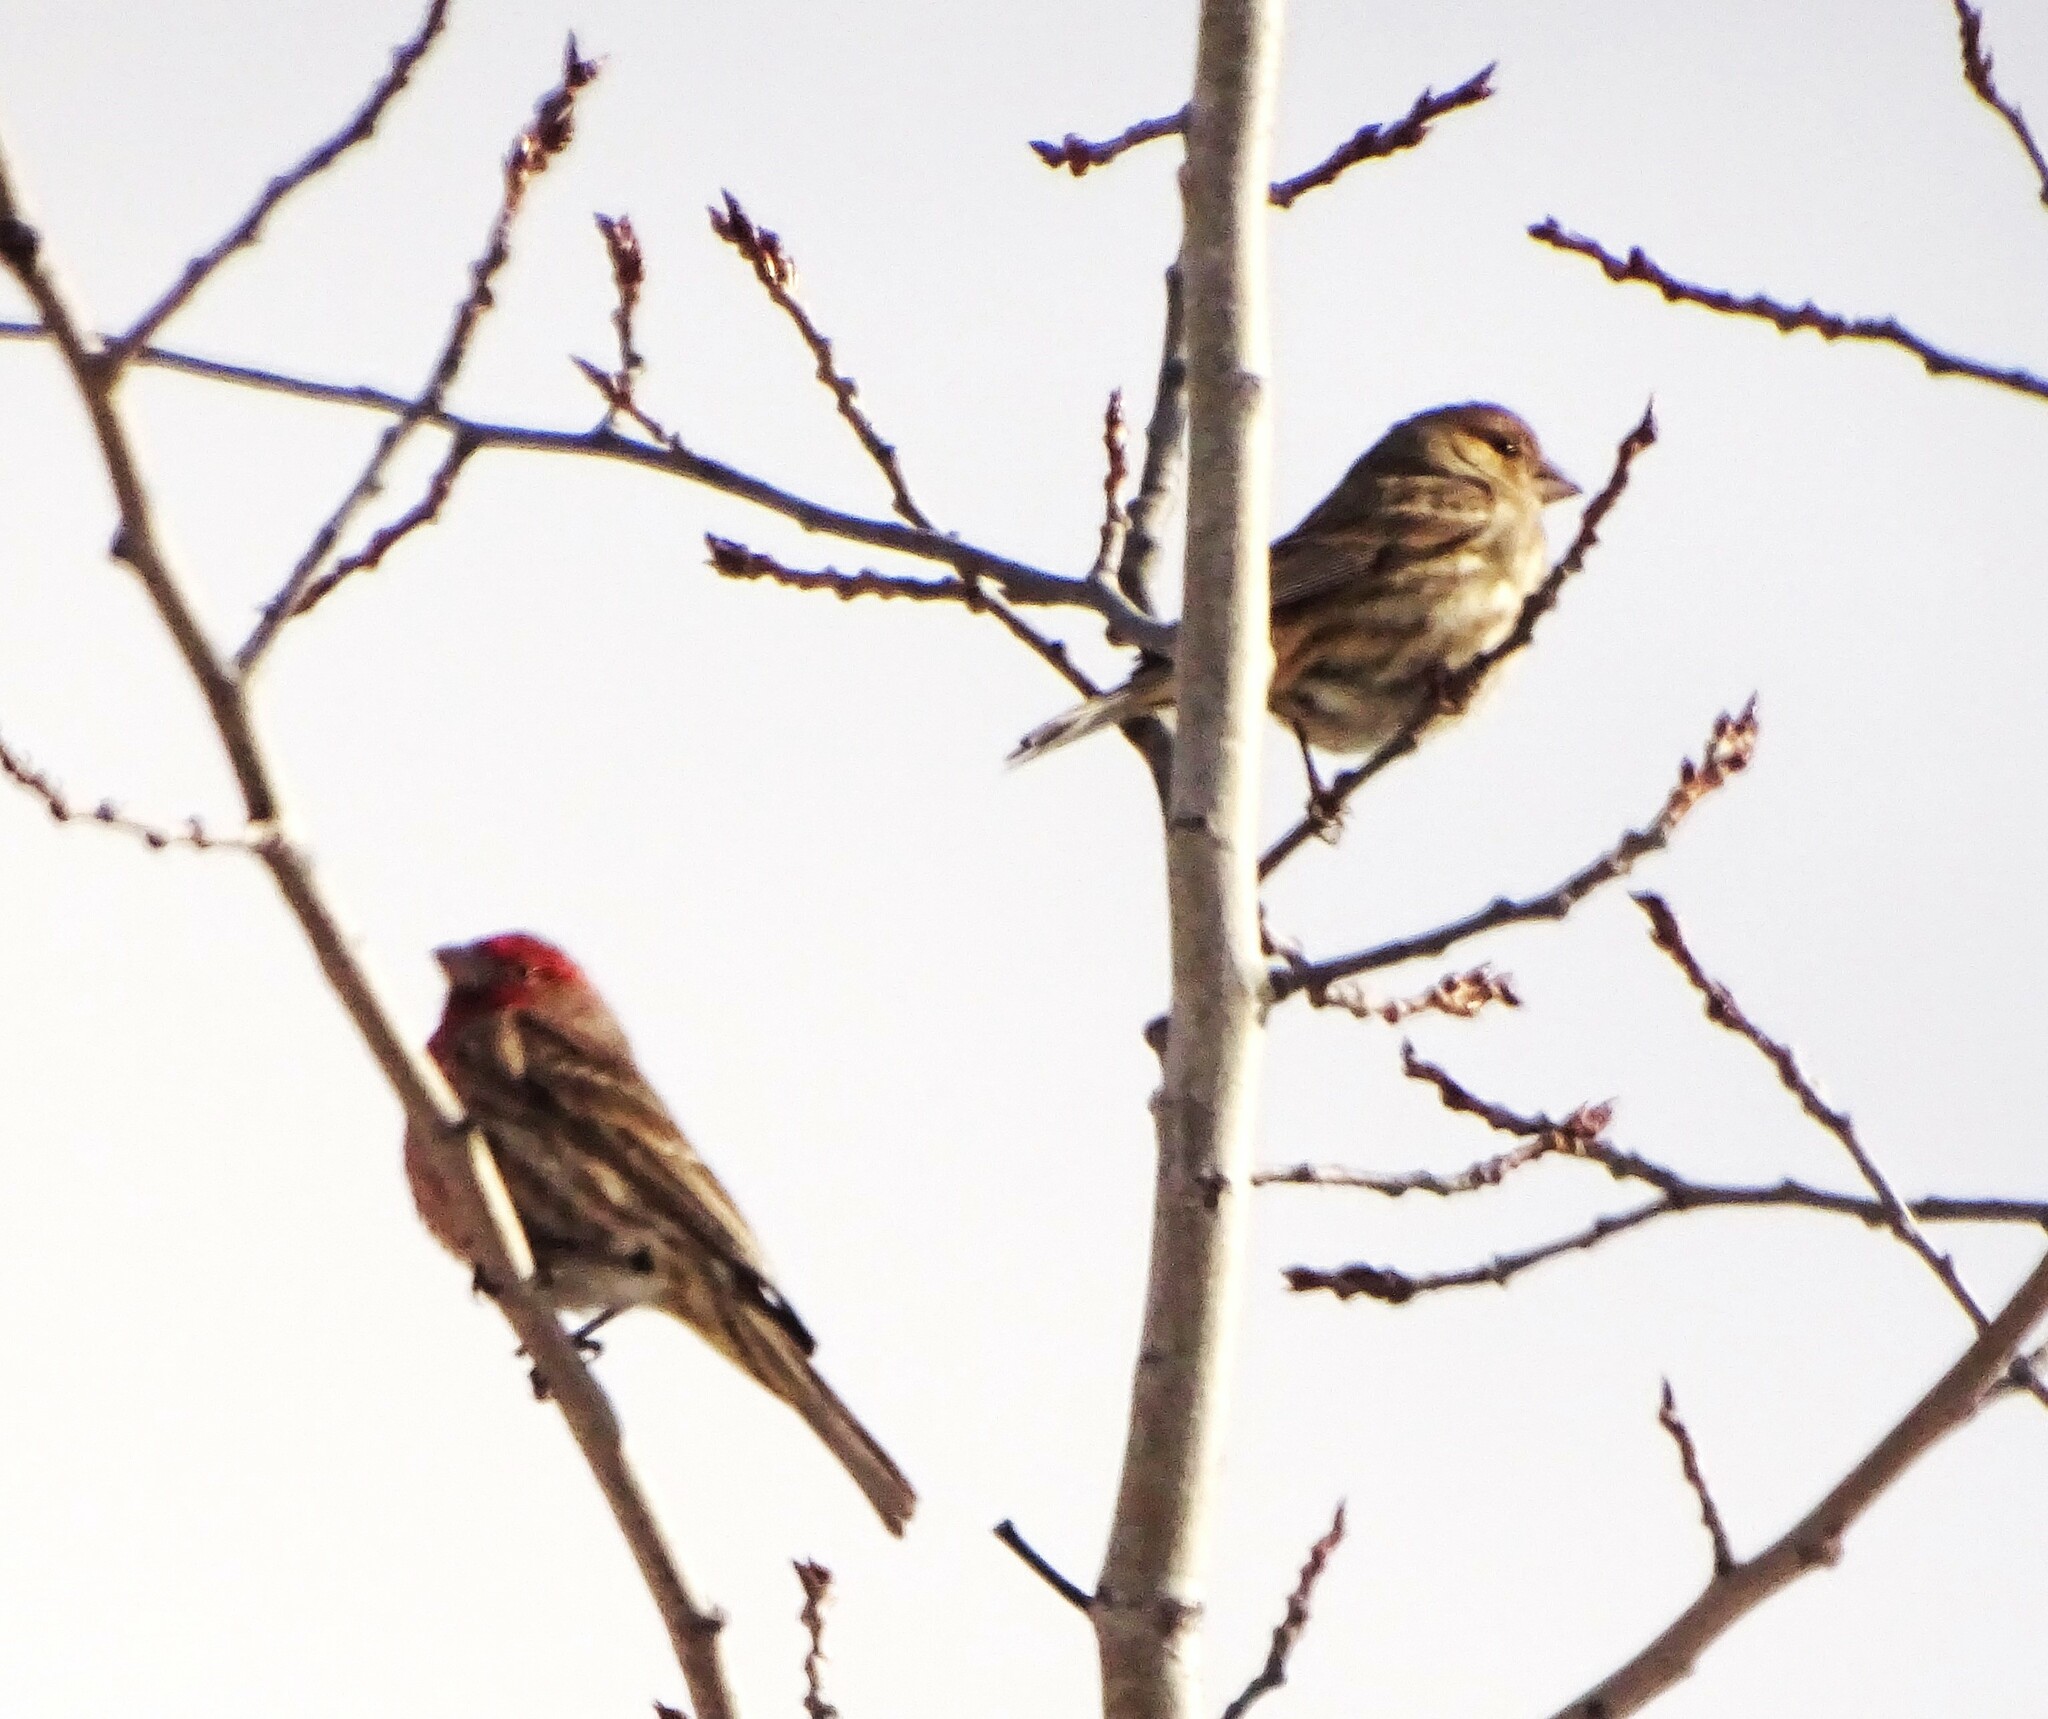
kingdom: Animalia
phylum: Chordata
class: Aves
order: Passeriformes
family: Fringillidae
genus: Haemorhous
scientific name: Haemorhous mexicanus
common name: House finch
